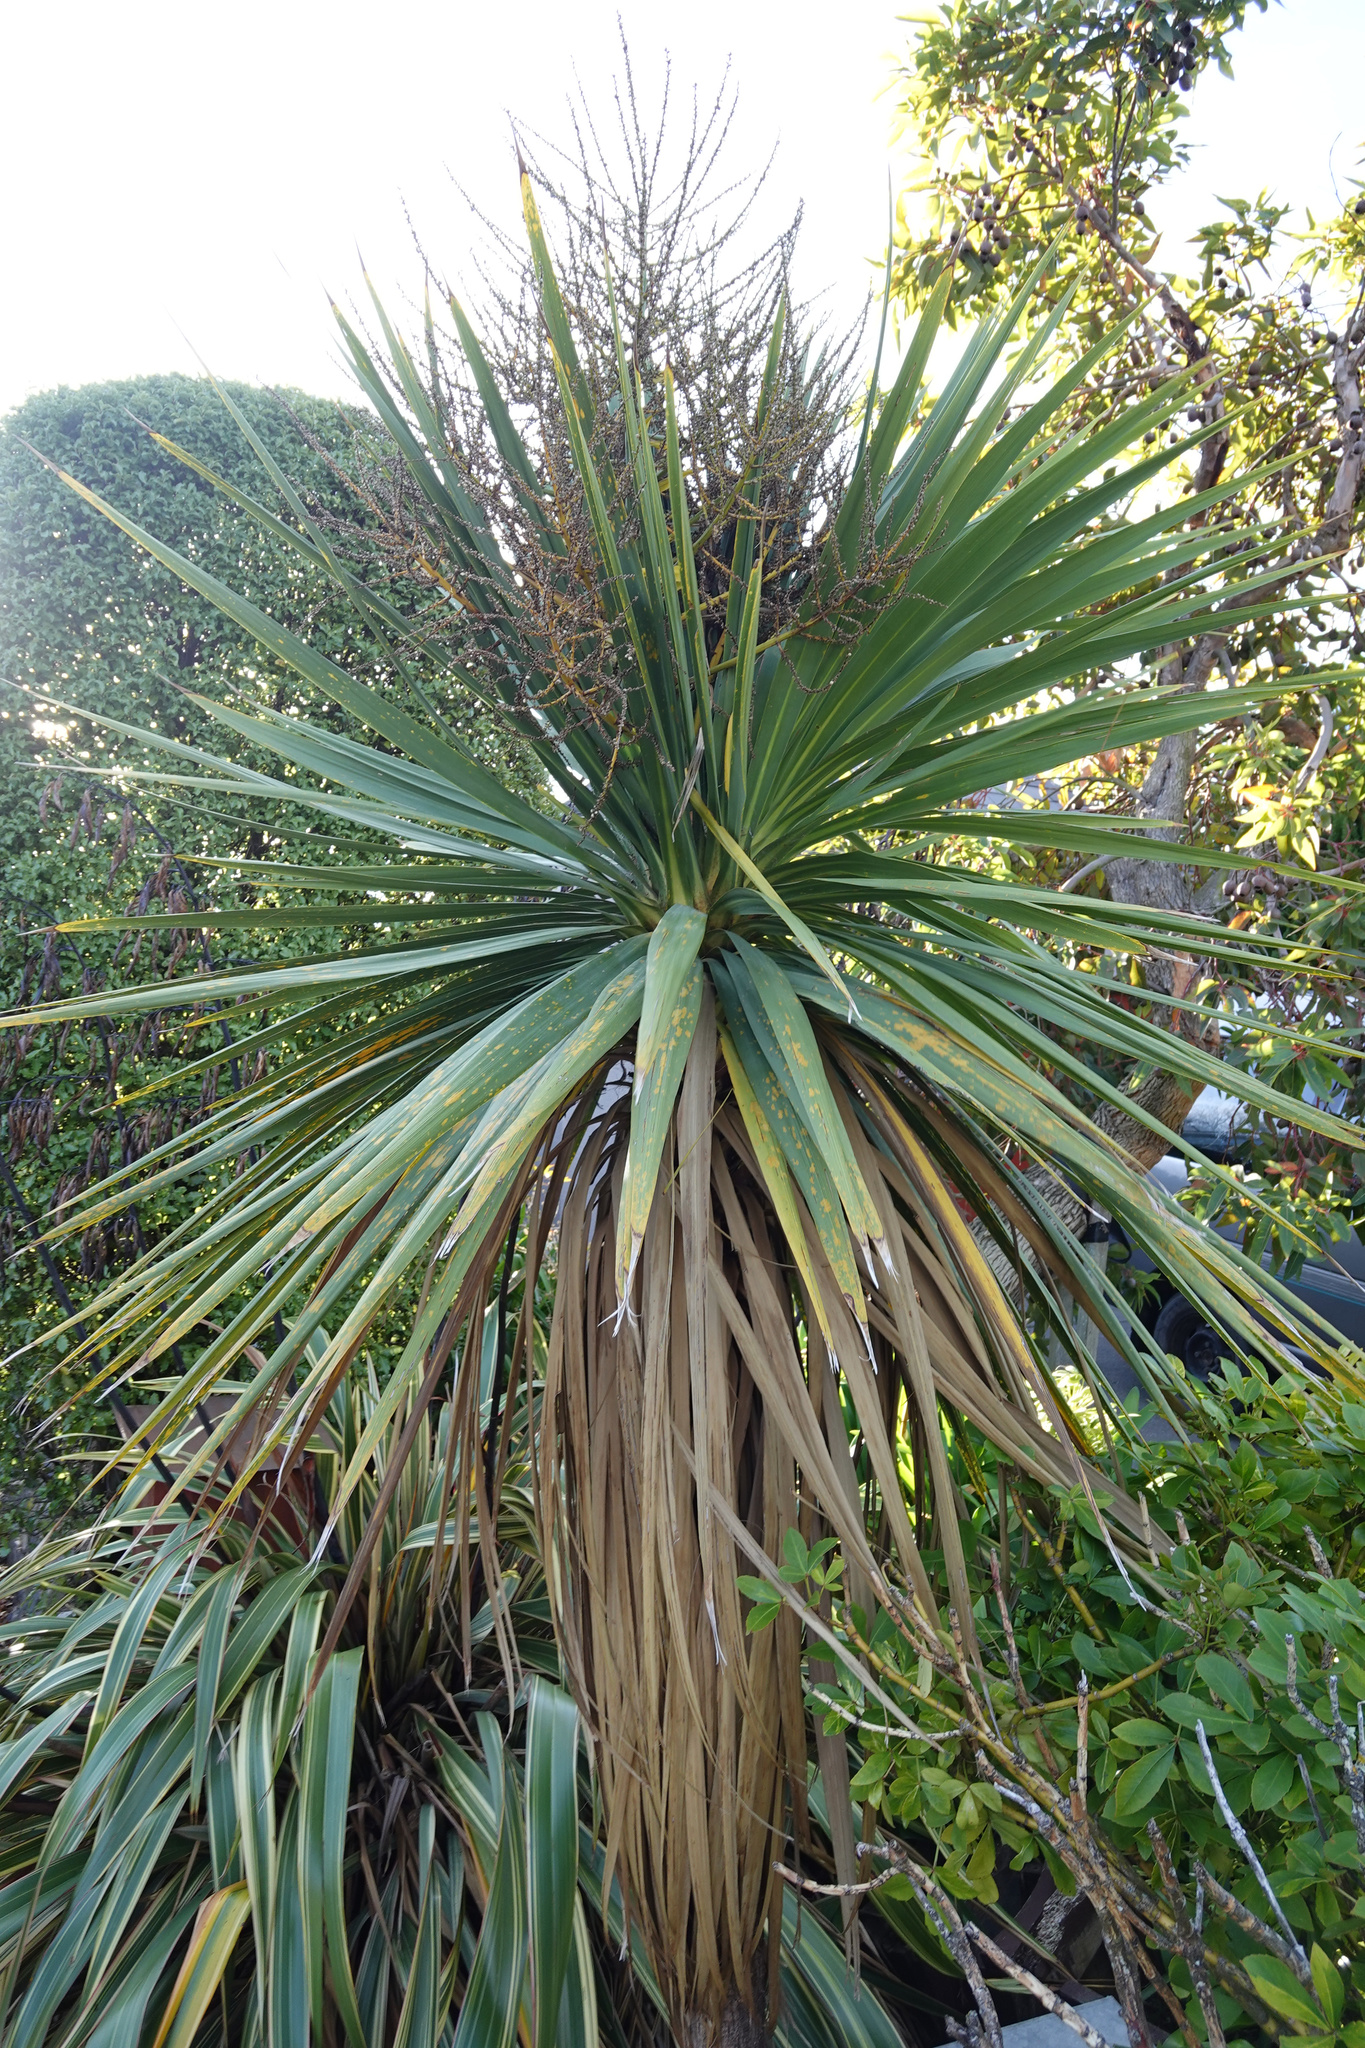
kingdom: Plantae
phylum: Tracheophyta
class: Liliopsida
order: Asparagales
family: Asparagaceae
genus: Cordyline
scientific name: Cordyline australis
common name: Cabbage-palm
